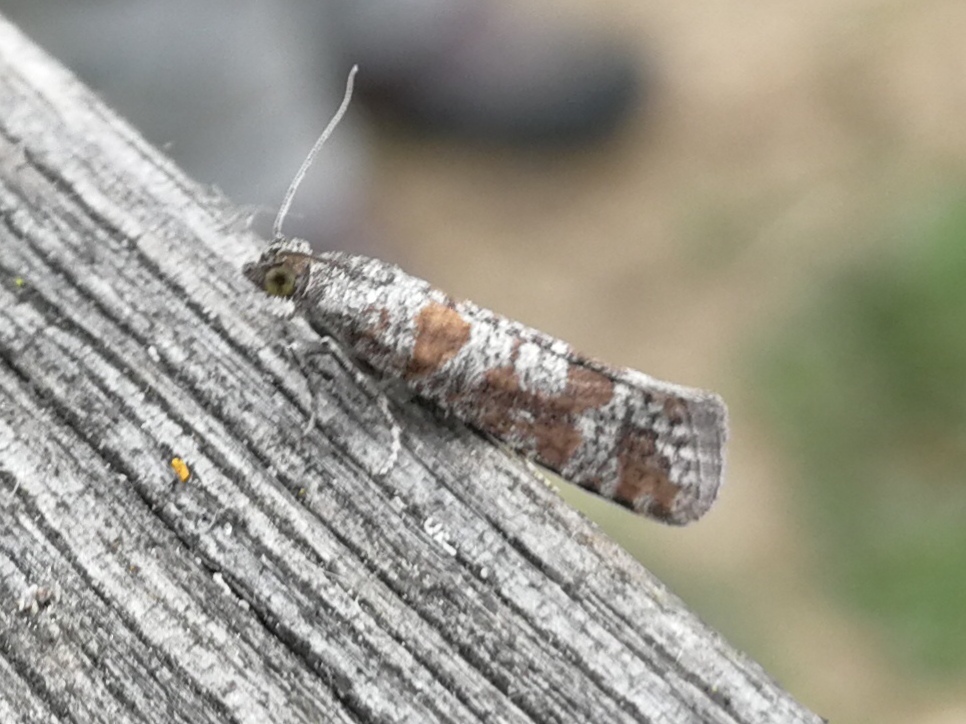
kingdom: Animalia
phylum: Arthropoda
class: Insecta
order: Lepidoptera
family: Tortricidae
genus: Rhyacionia
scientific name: Rhyacionia pinivorana
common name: Spotted shoot moth
